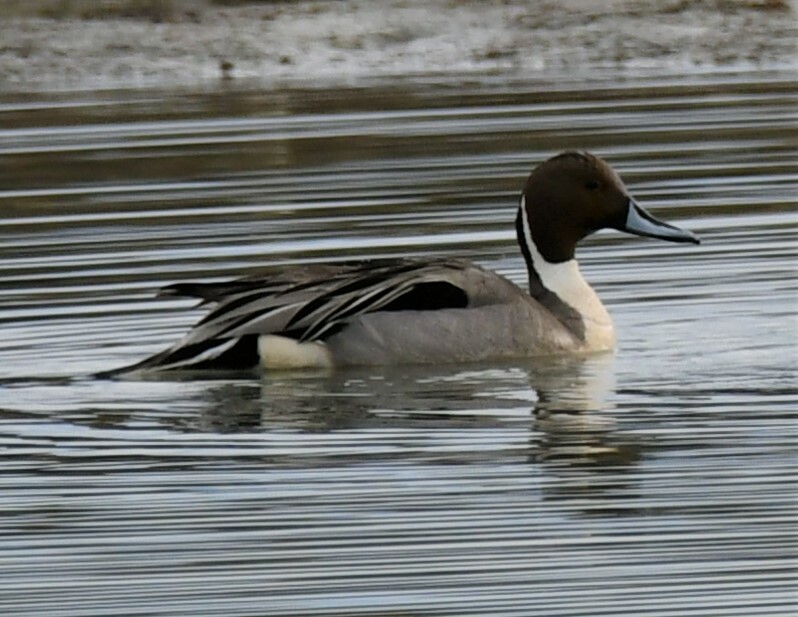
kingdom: Animalia
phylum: Chordata
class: Aves
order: Anseriformes
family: Anatidae
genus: Anas
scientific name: Anas acuta
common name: Northern pintail
